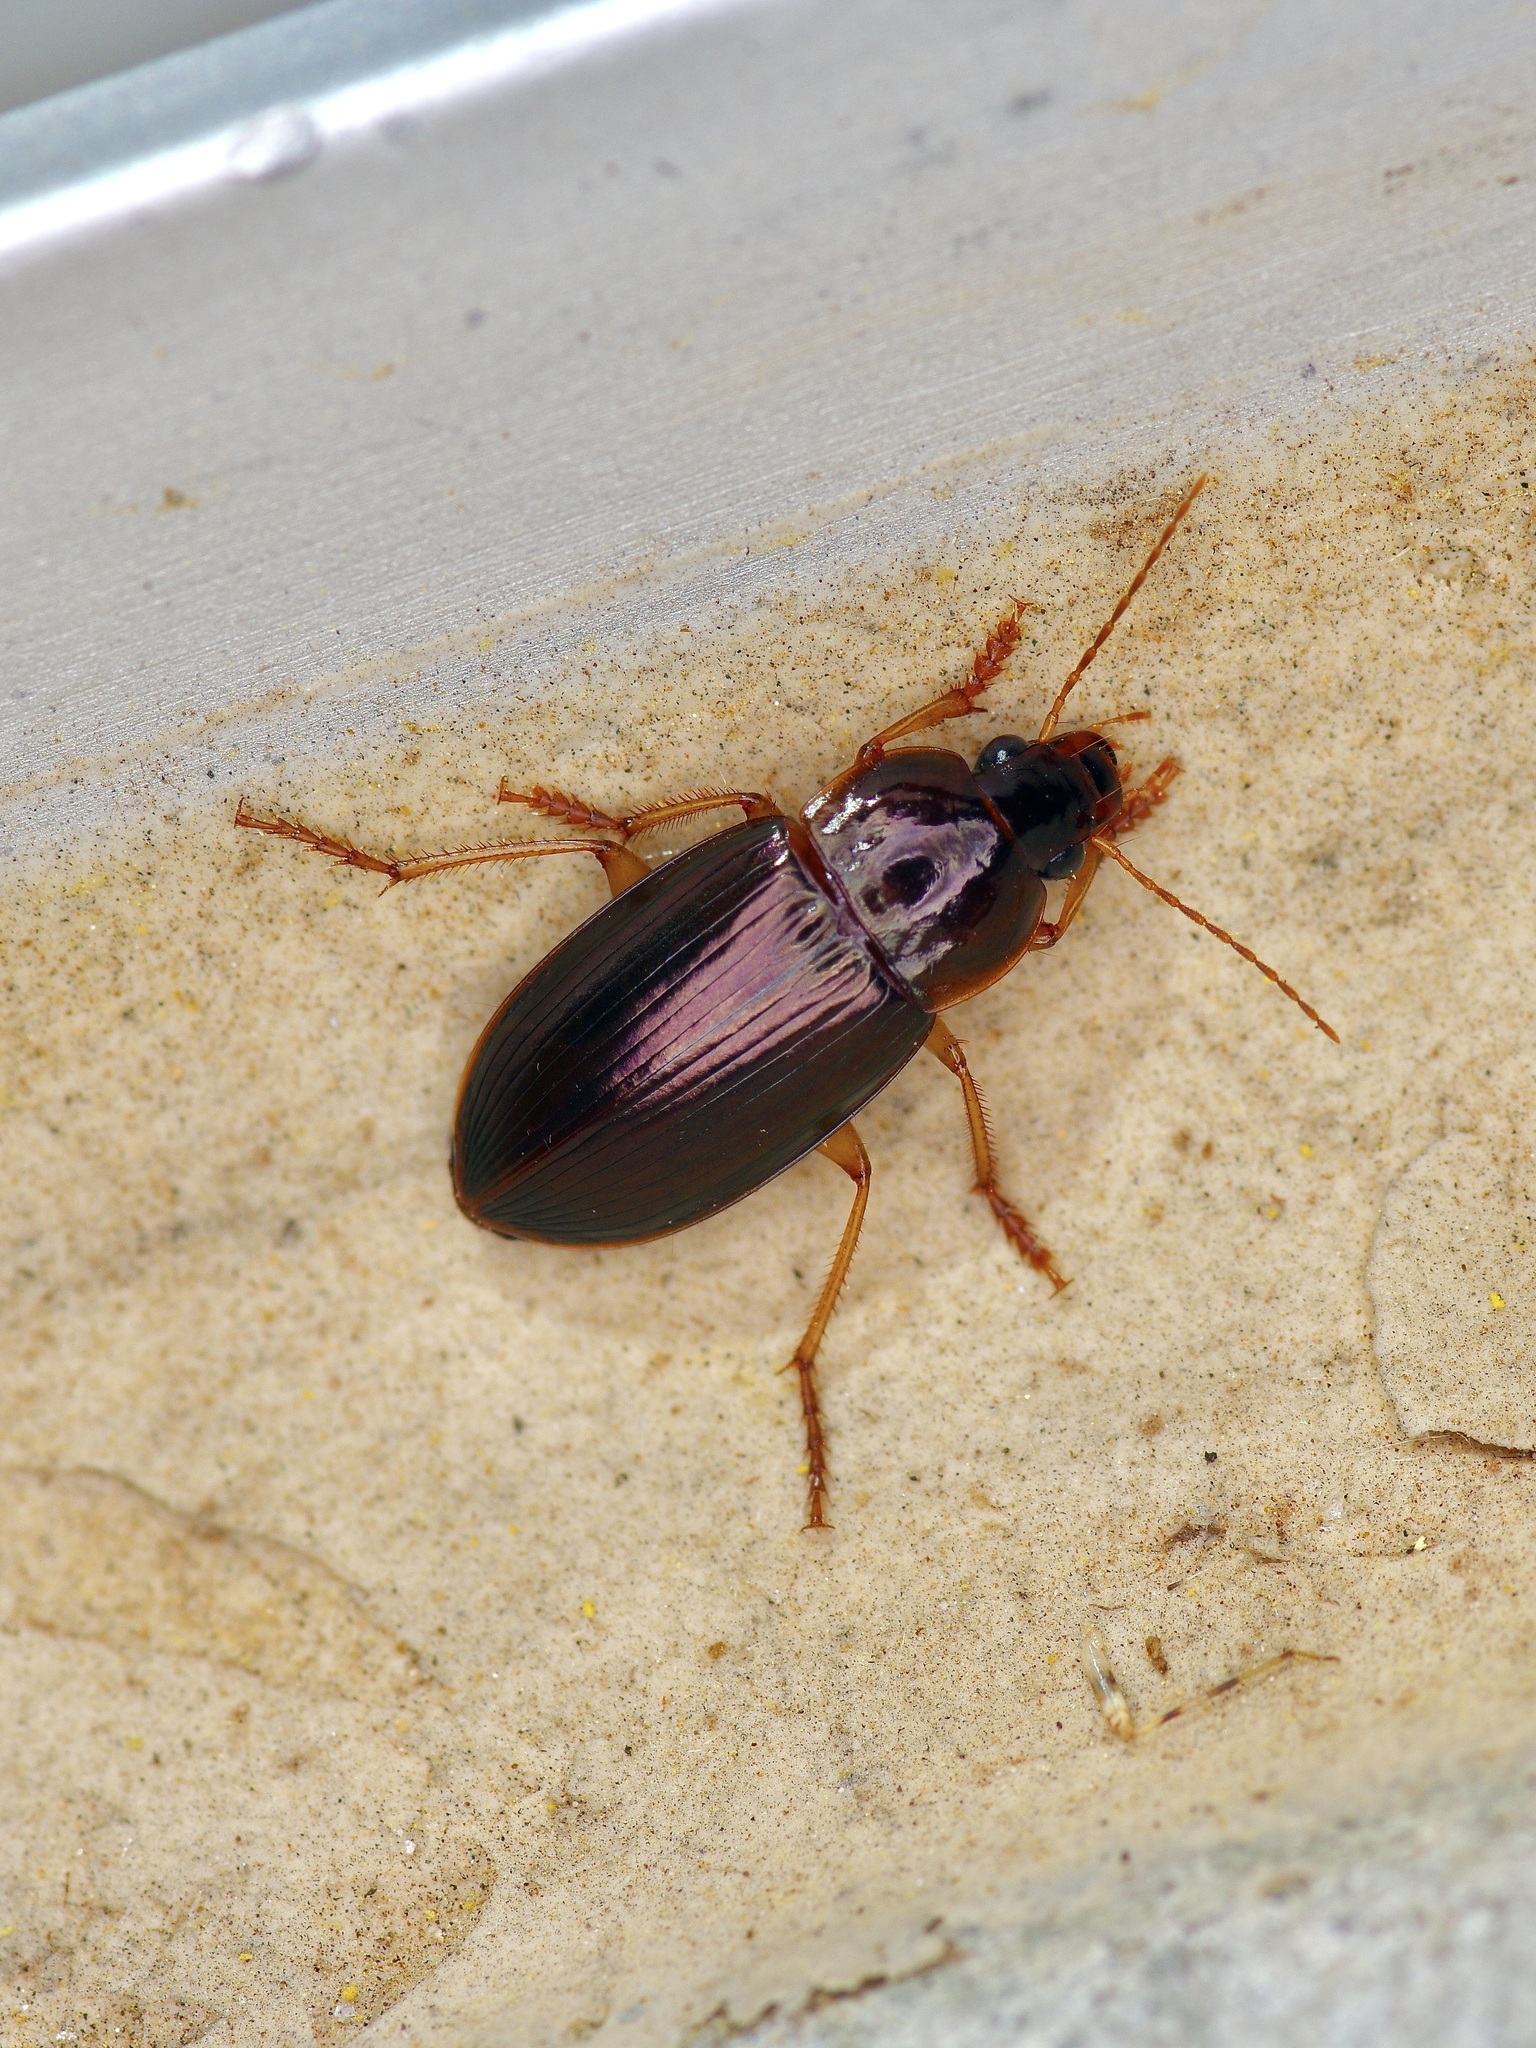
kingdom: Animalia
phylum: Arthropoda
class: Insecta
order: Coleoptera
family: Carabidae
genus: Notiobia
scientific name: Notiobia terminata
